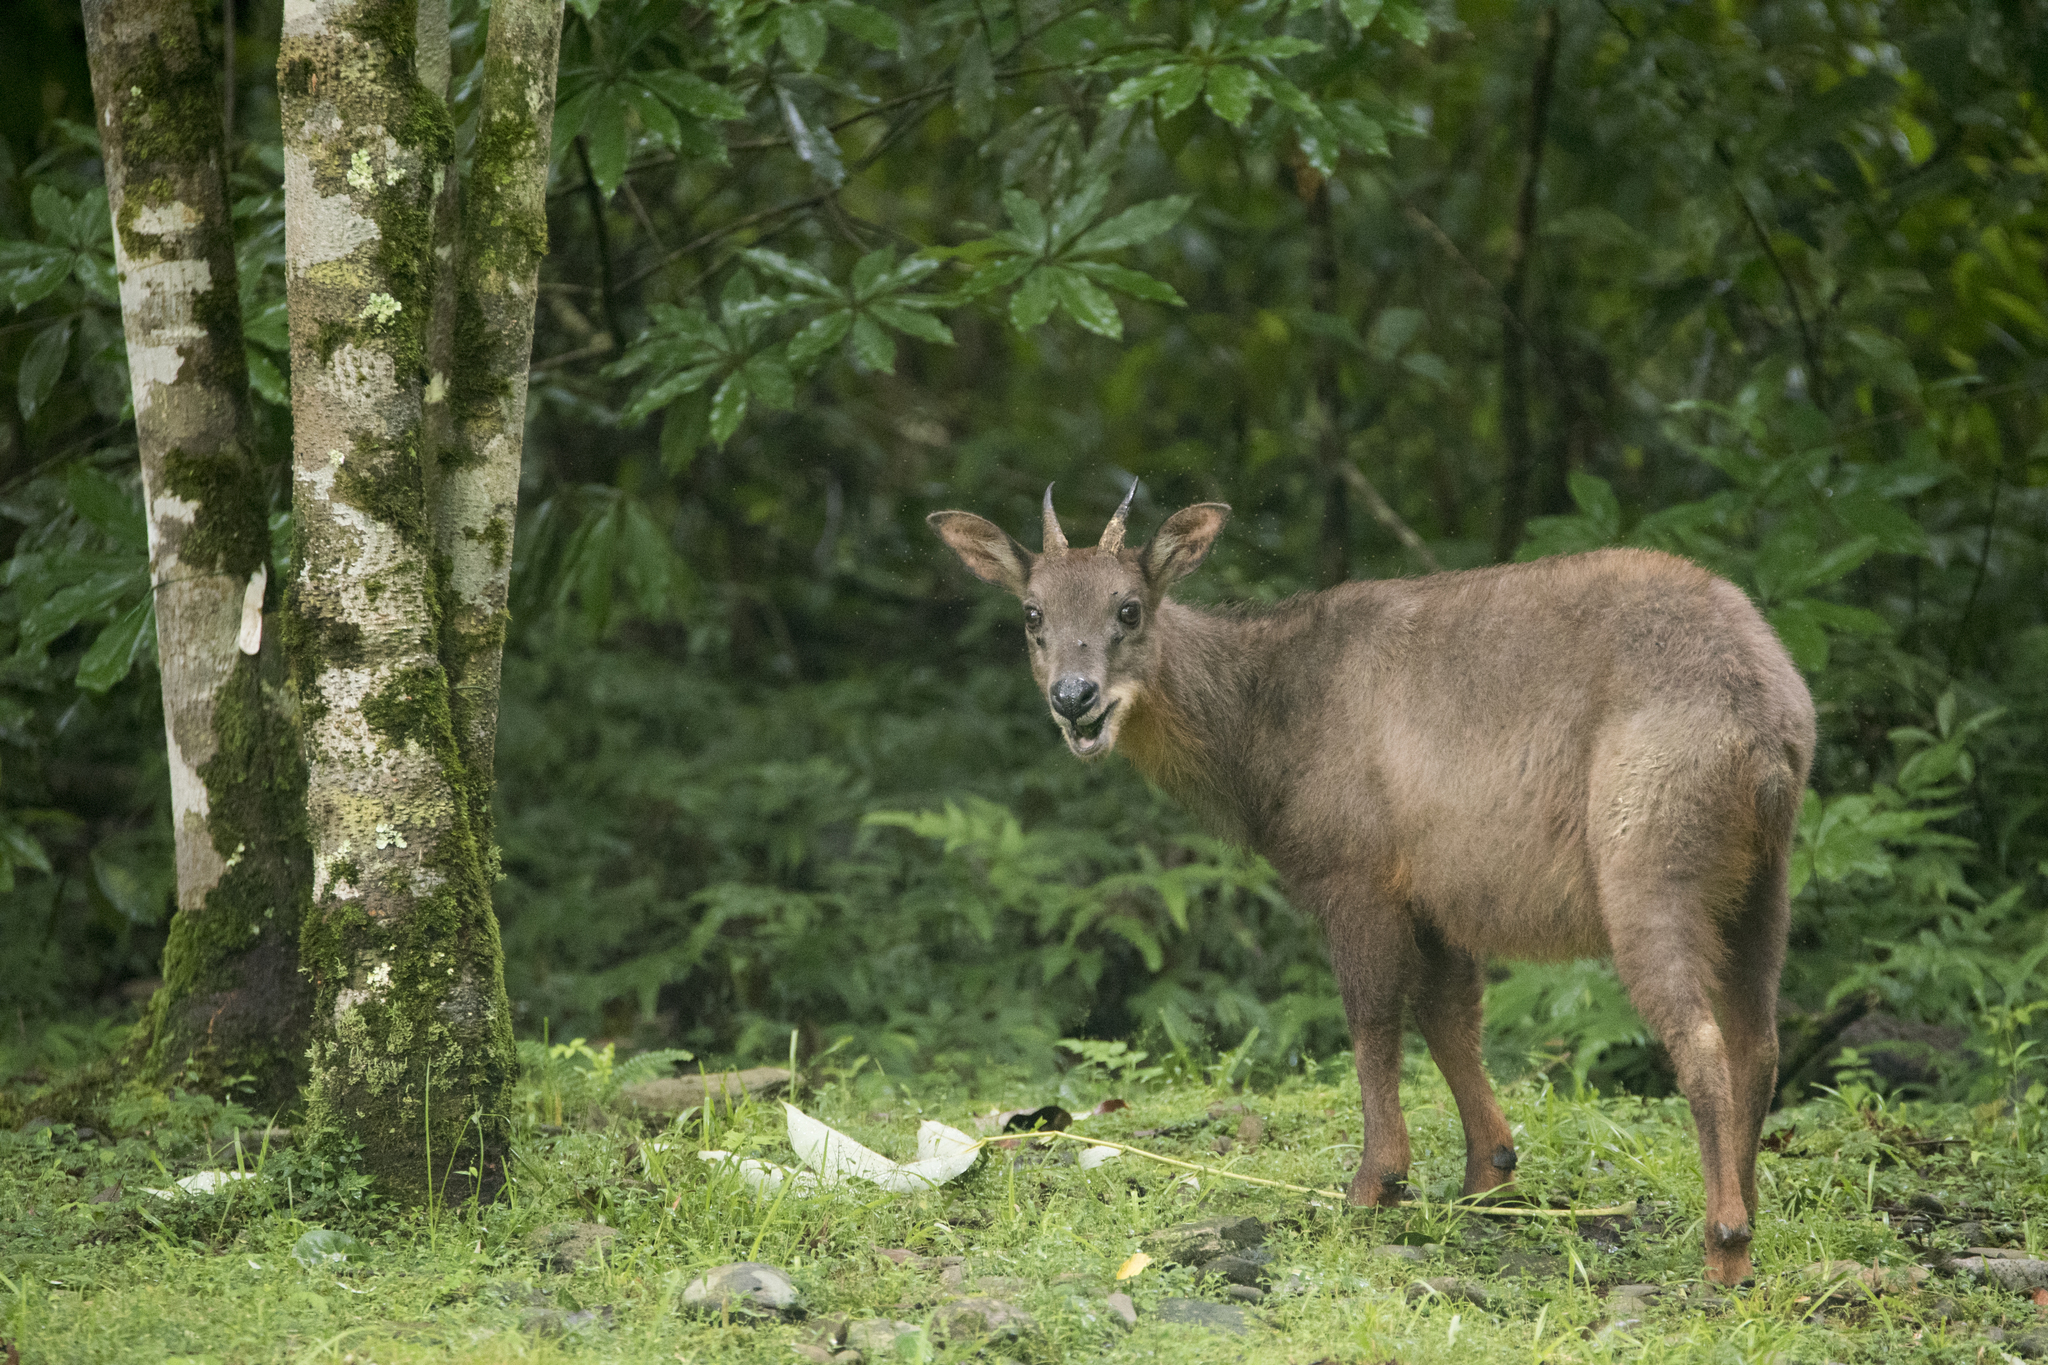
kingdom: Animalia
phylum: Chordata
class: Mammalia
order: Artiodactyla
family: Bovidae
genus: Capricornis
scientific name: Capricornis swinhoei
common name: Formosan serow
